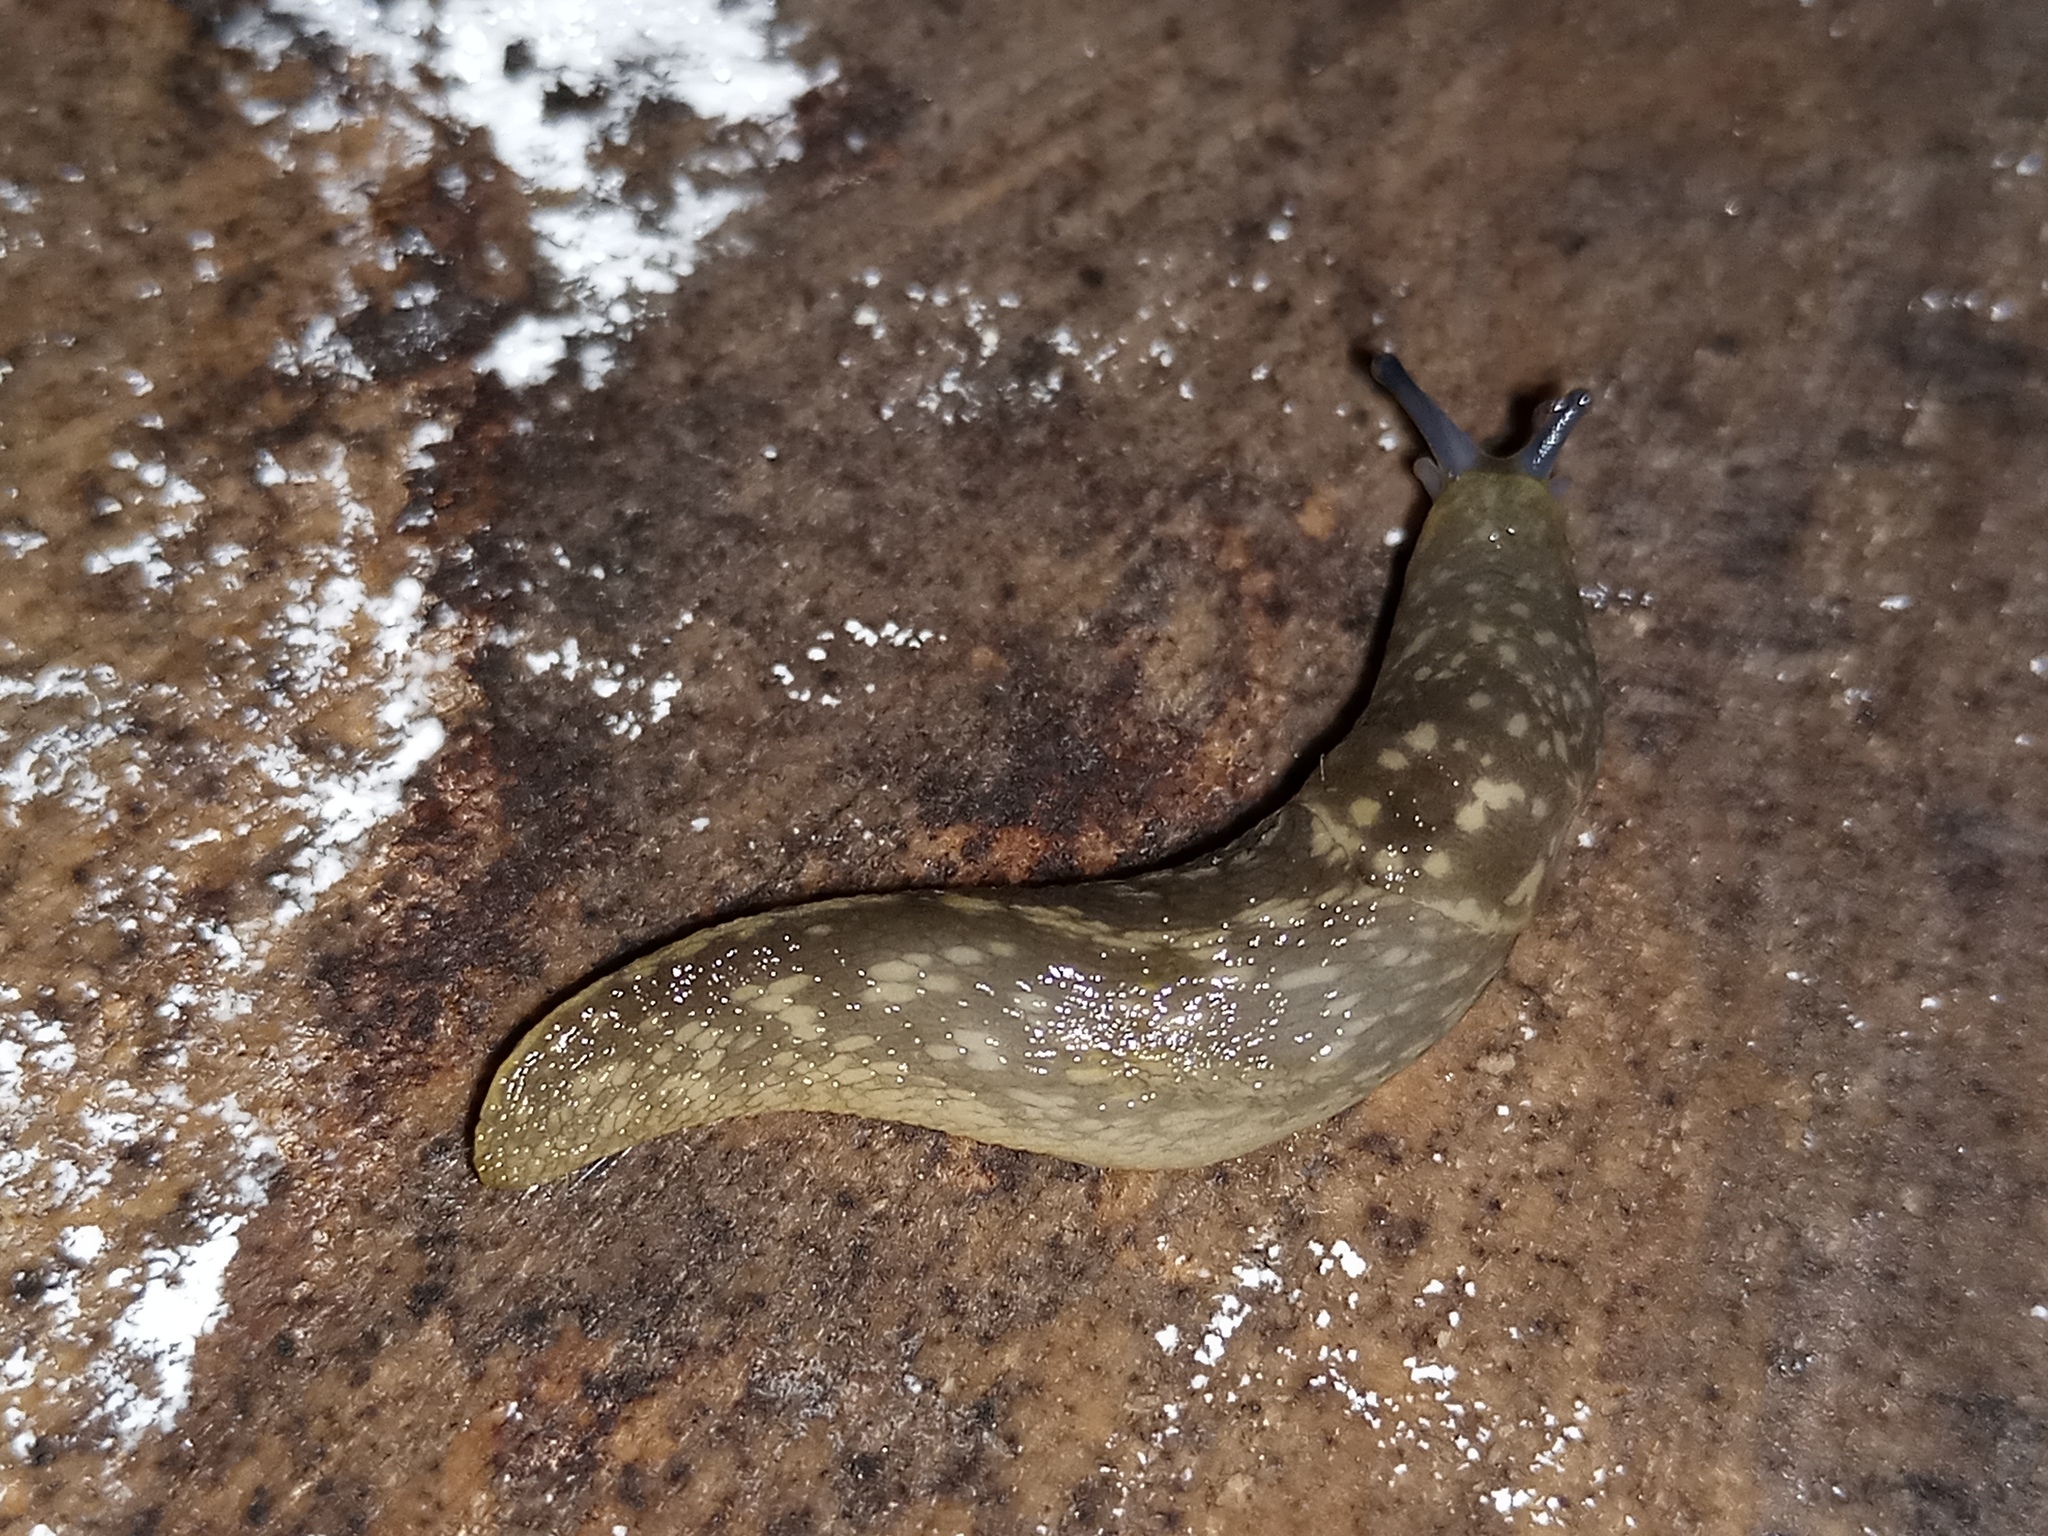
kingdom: Animalia
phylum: Mollusca
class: Gastropoda
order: Stylommatophora
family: Limacidae
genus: Limacus
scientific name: Limacus flavus
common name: Yellow gardenslug
